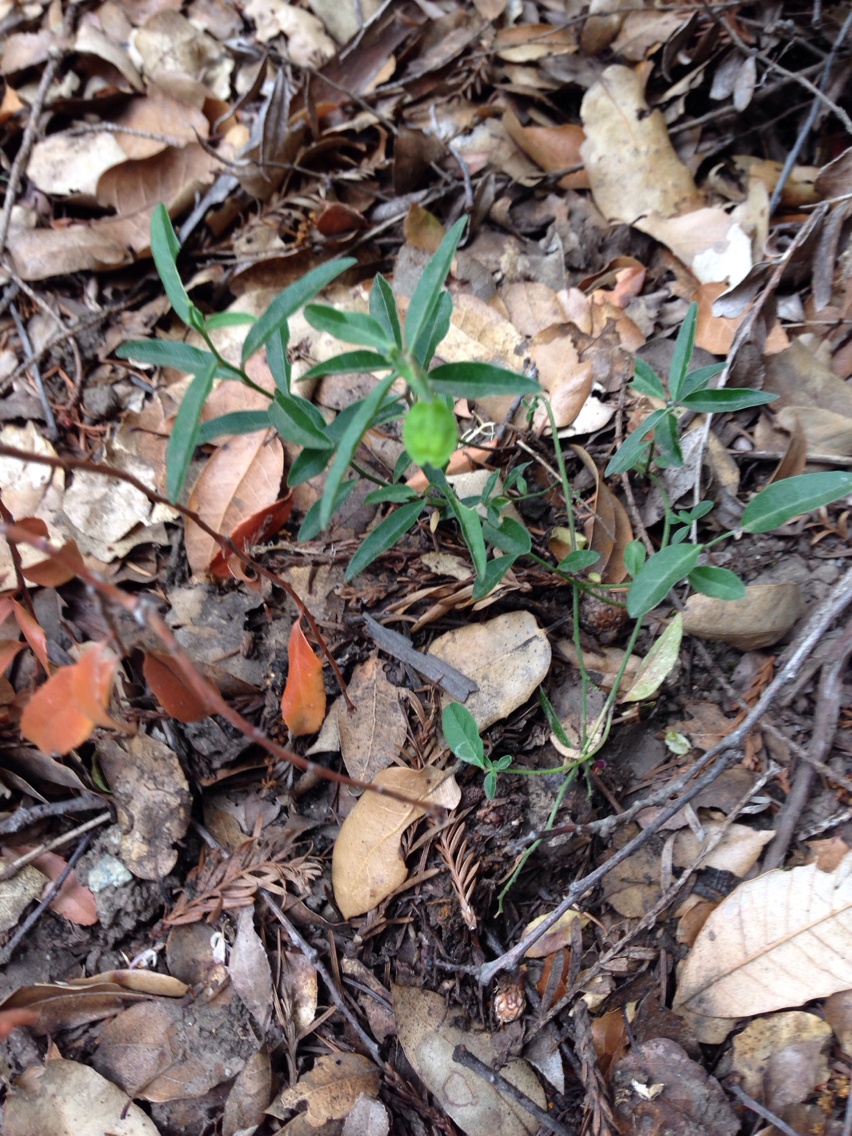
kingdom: Plantae
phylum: Tracheophyta
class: Magnoliopsida
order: Fabales
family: Polygalaceae
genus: Rhinotropis
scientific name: Rhinotropis californica
